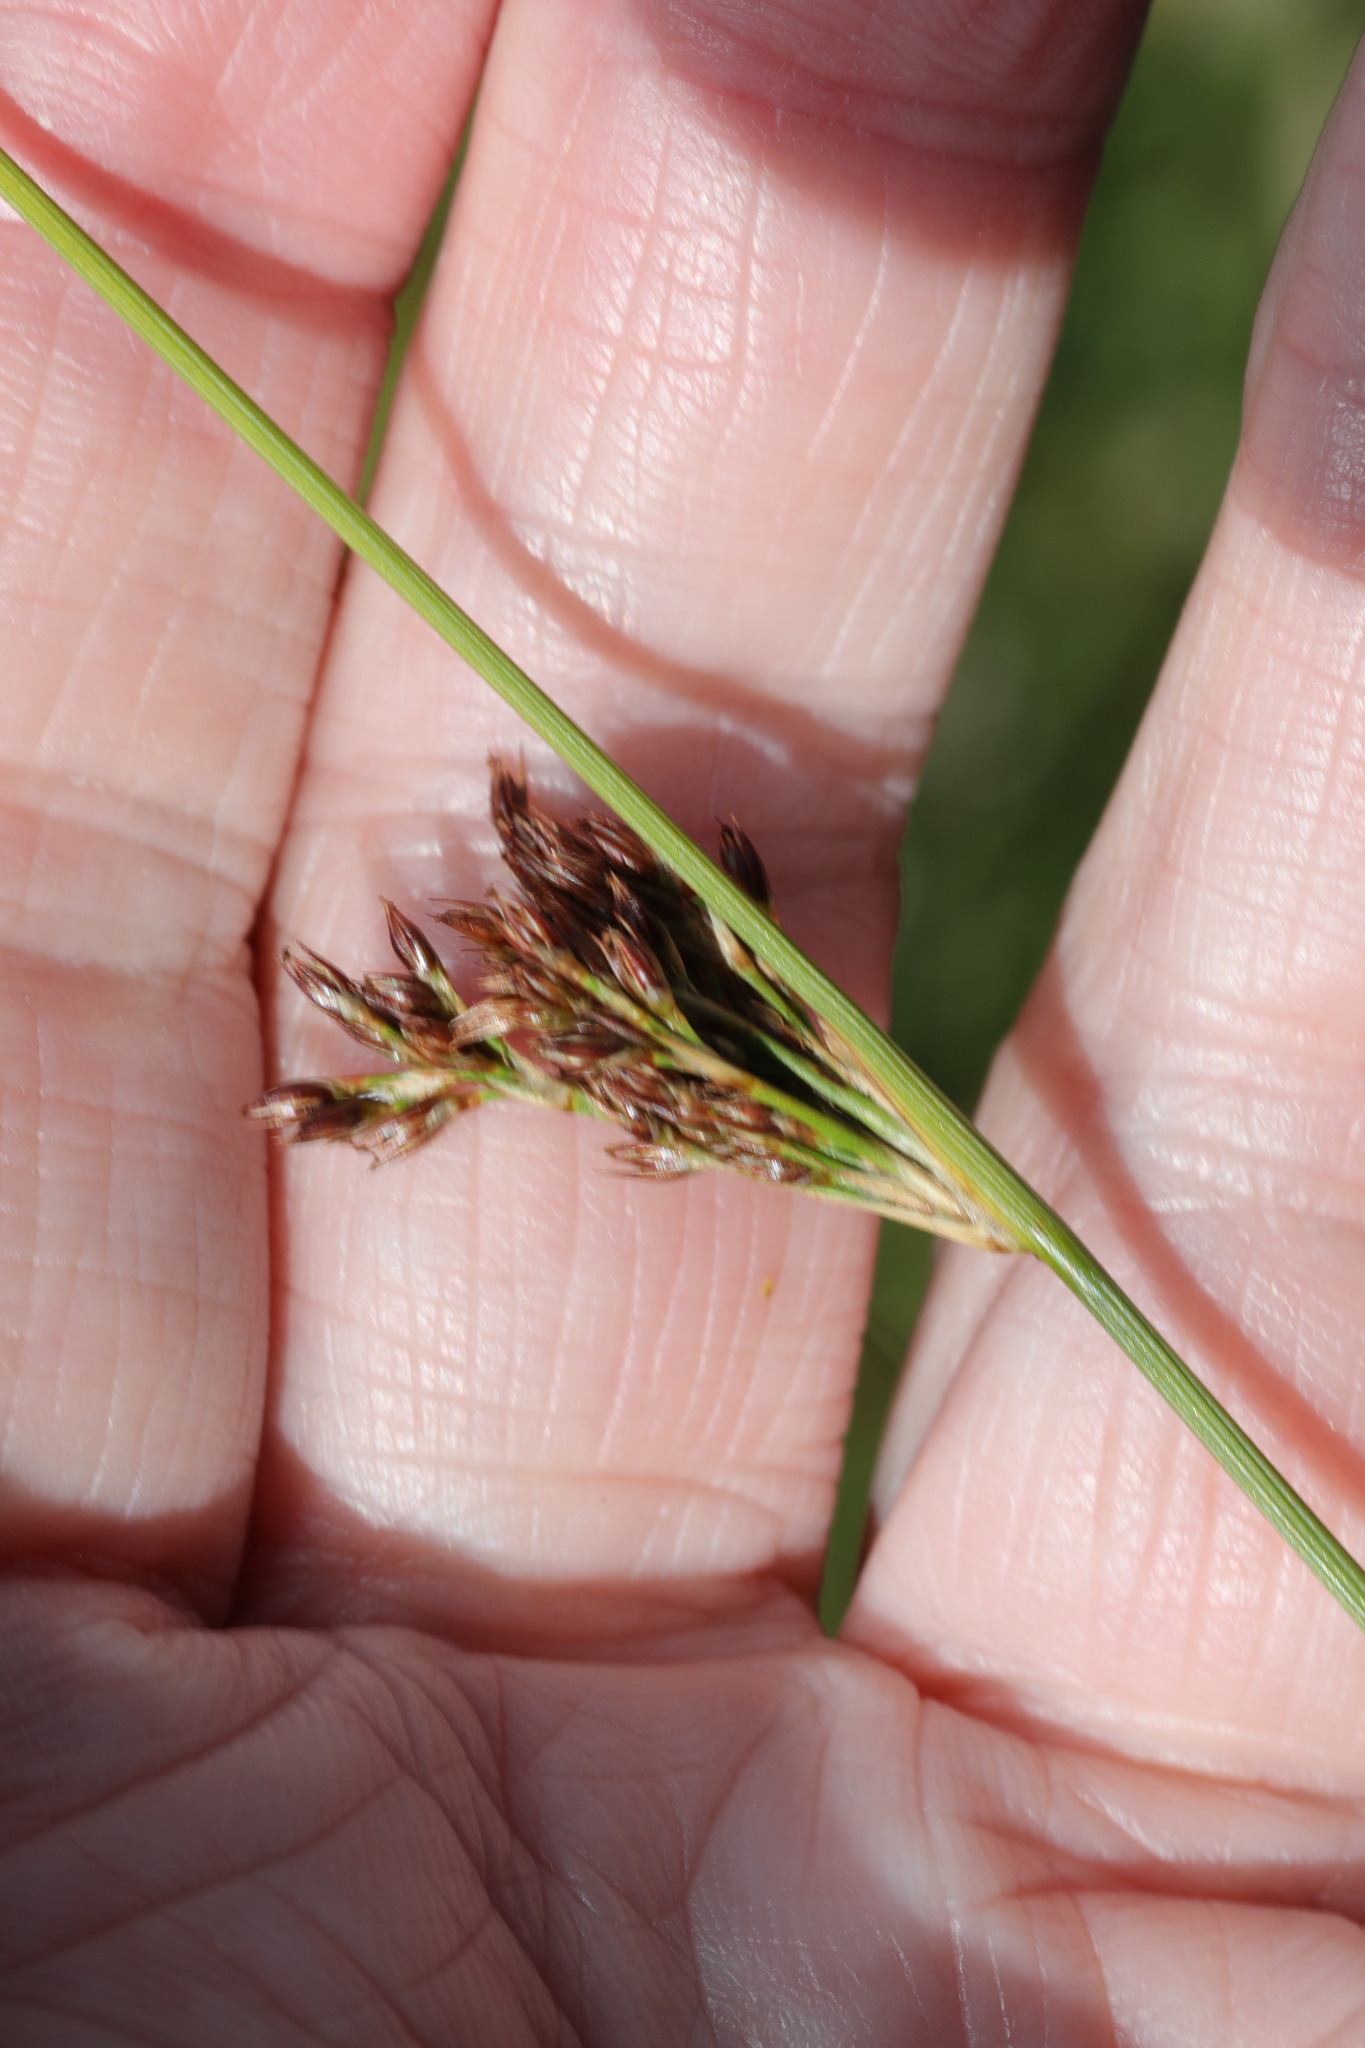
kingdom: Plantae
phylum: Tracheophyta
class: Liliopsida
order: Poales
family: Juncaceae
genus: Juncus
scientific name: Juncus inflexus
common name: Hard rush
